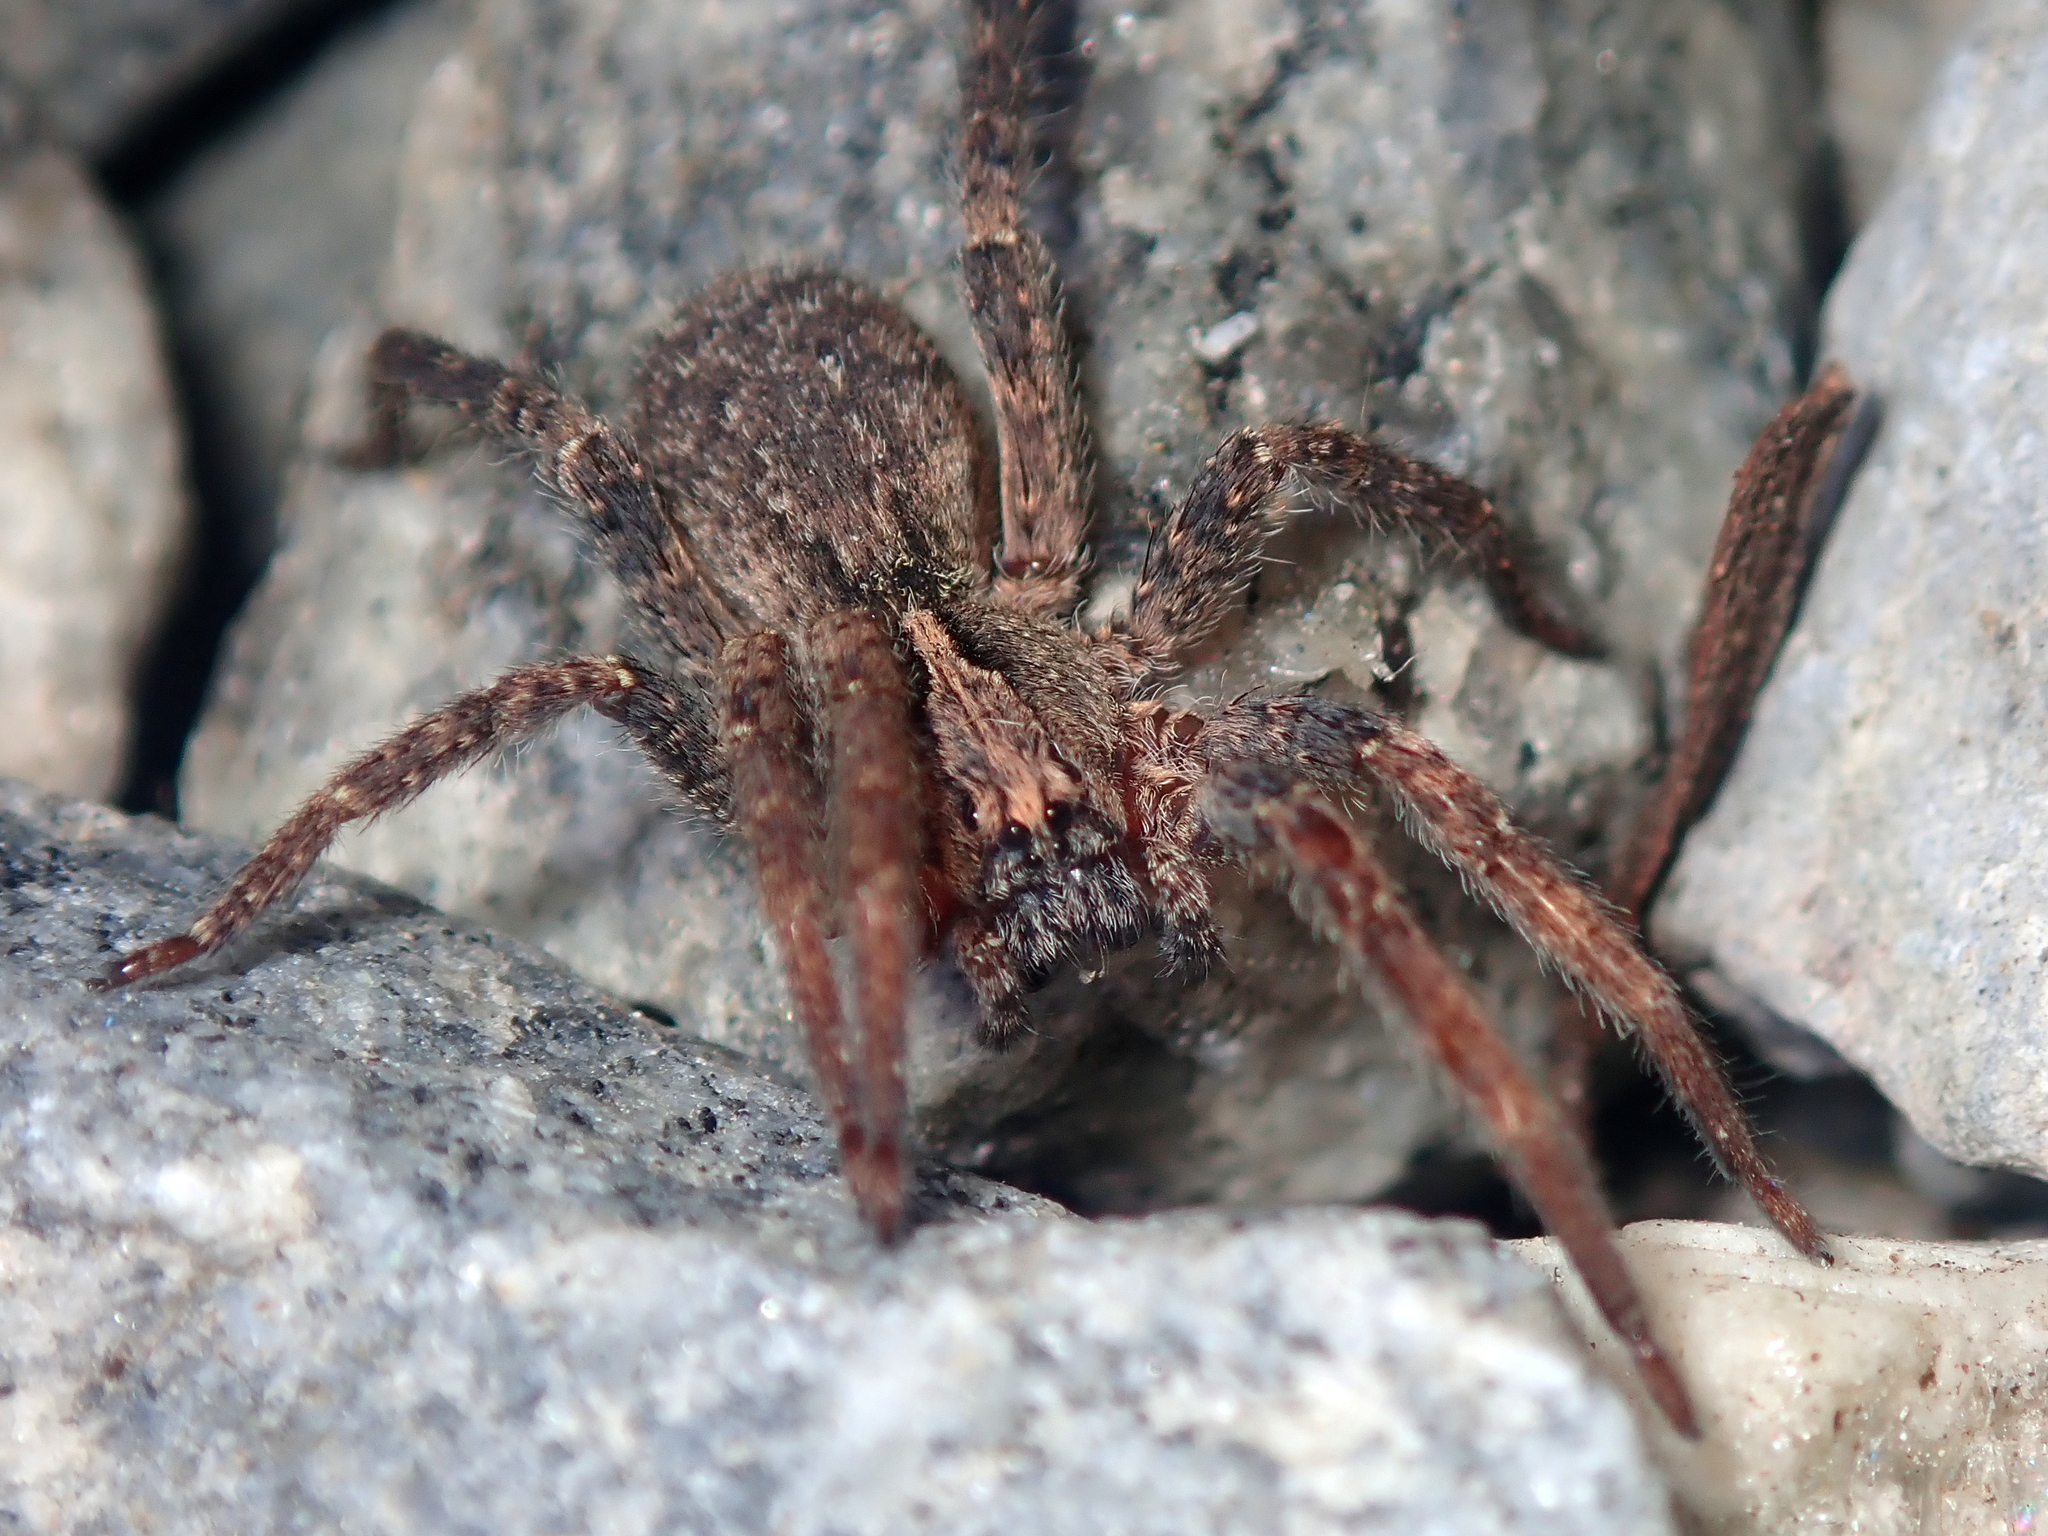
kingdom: Animalia
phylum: Arthropoda
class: Arachnida
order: Araneae
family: Ctenidae
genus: Parabatinga
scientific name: Parabatinga brevipes
